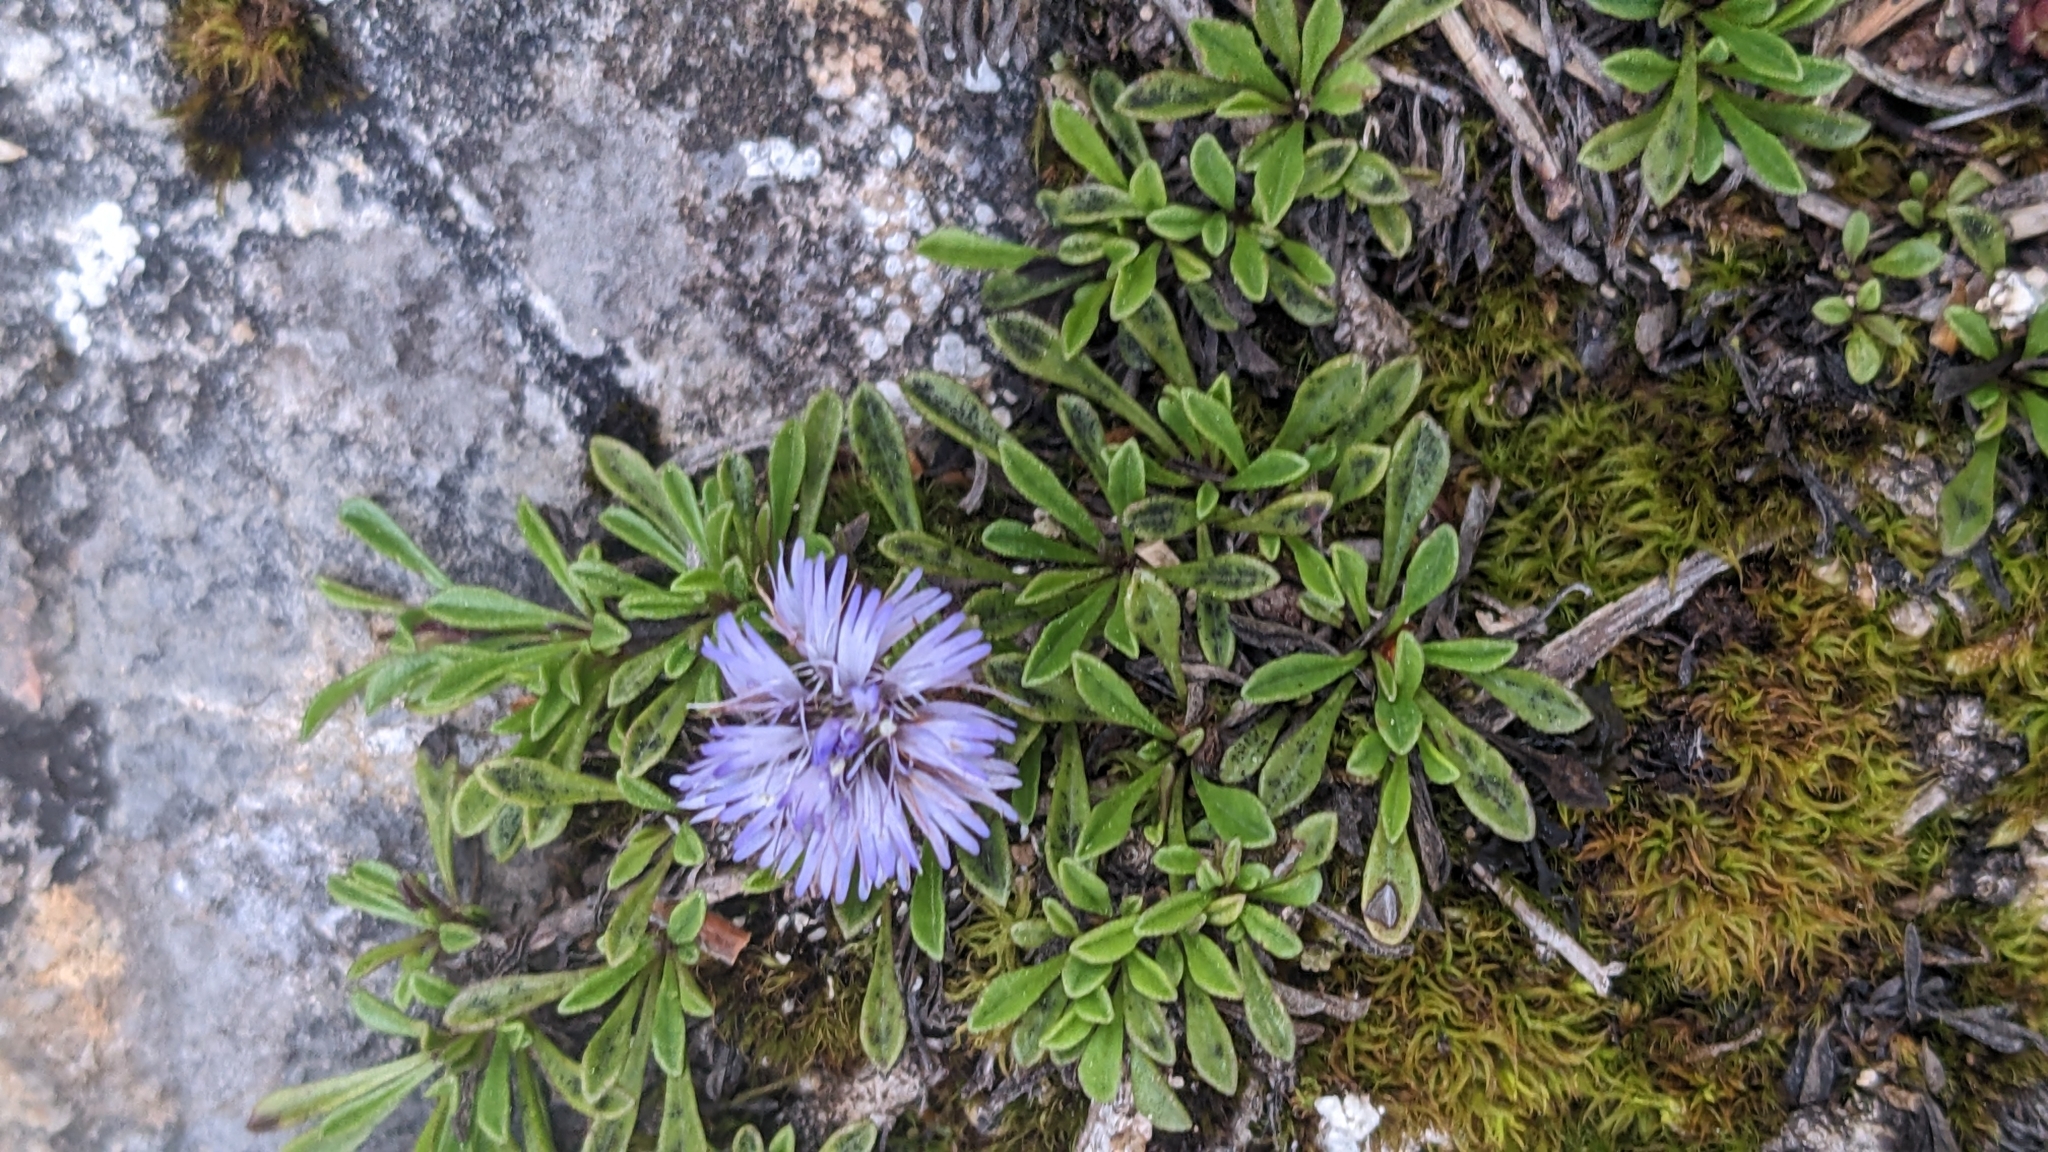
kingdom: Plantae
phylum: Tracheophyta
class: Magnoliopsida
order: Lamiales
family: Plantaginaceae
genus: Globularia
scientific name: Globularia repens
